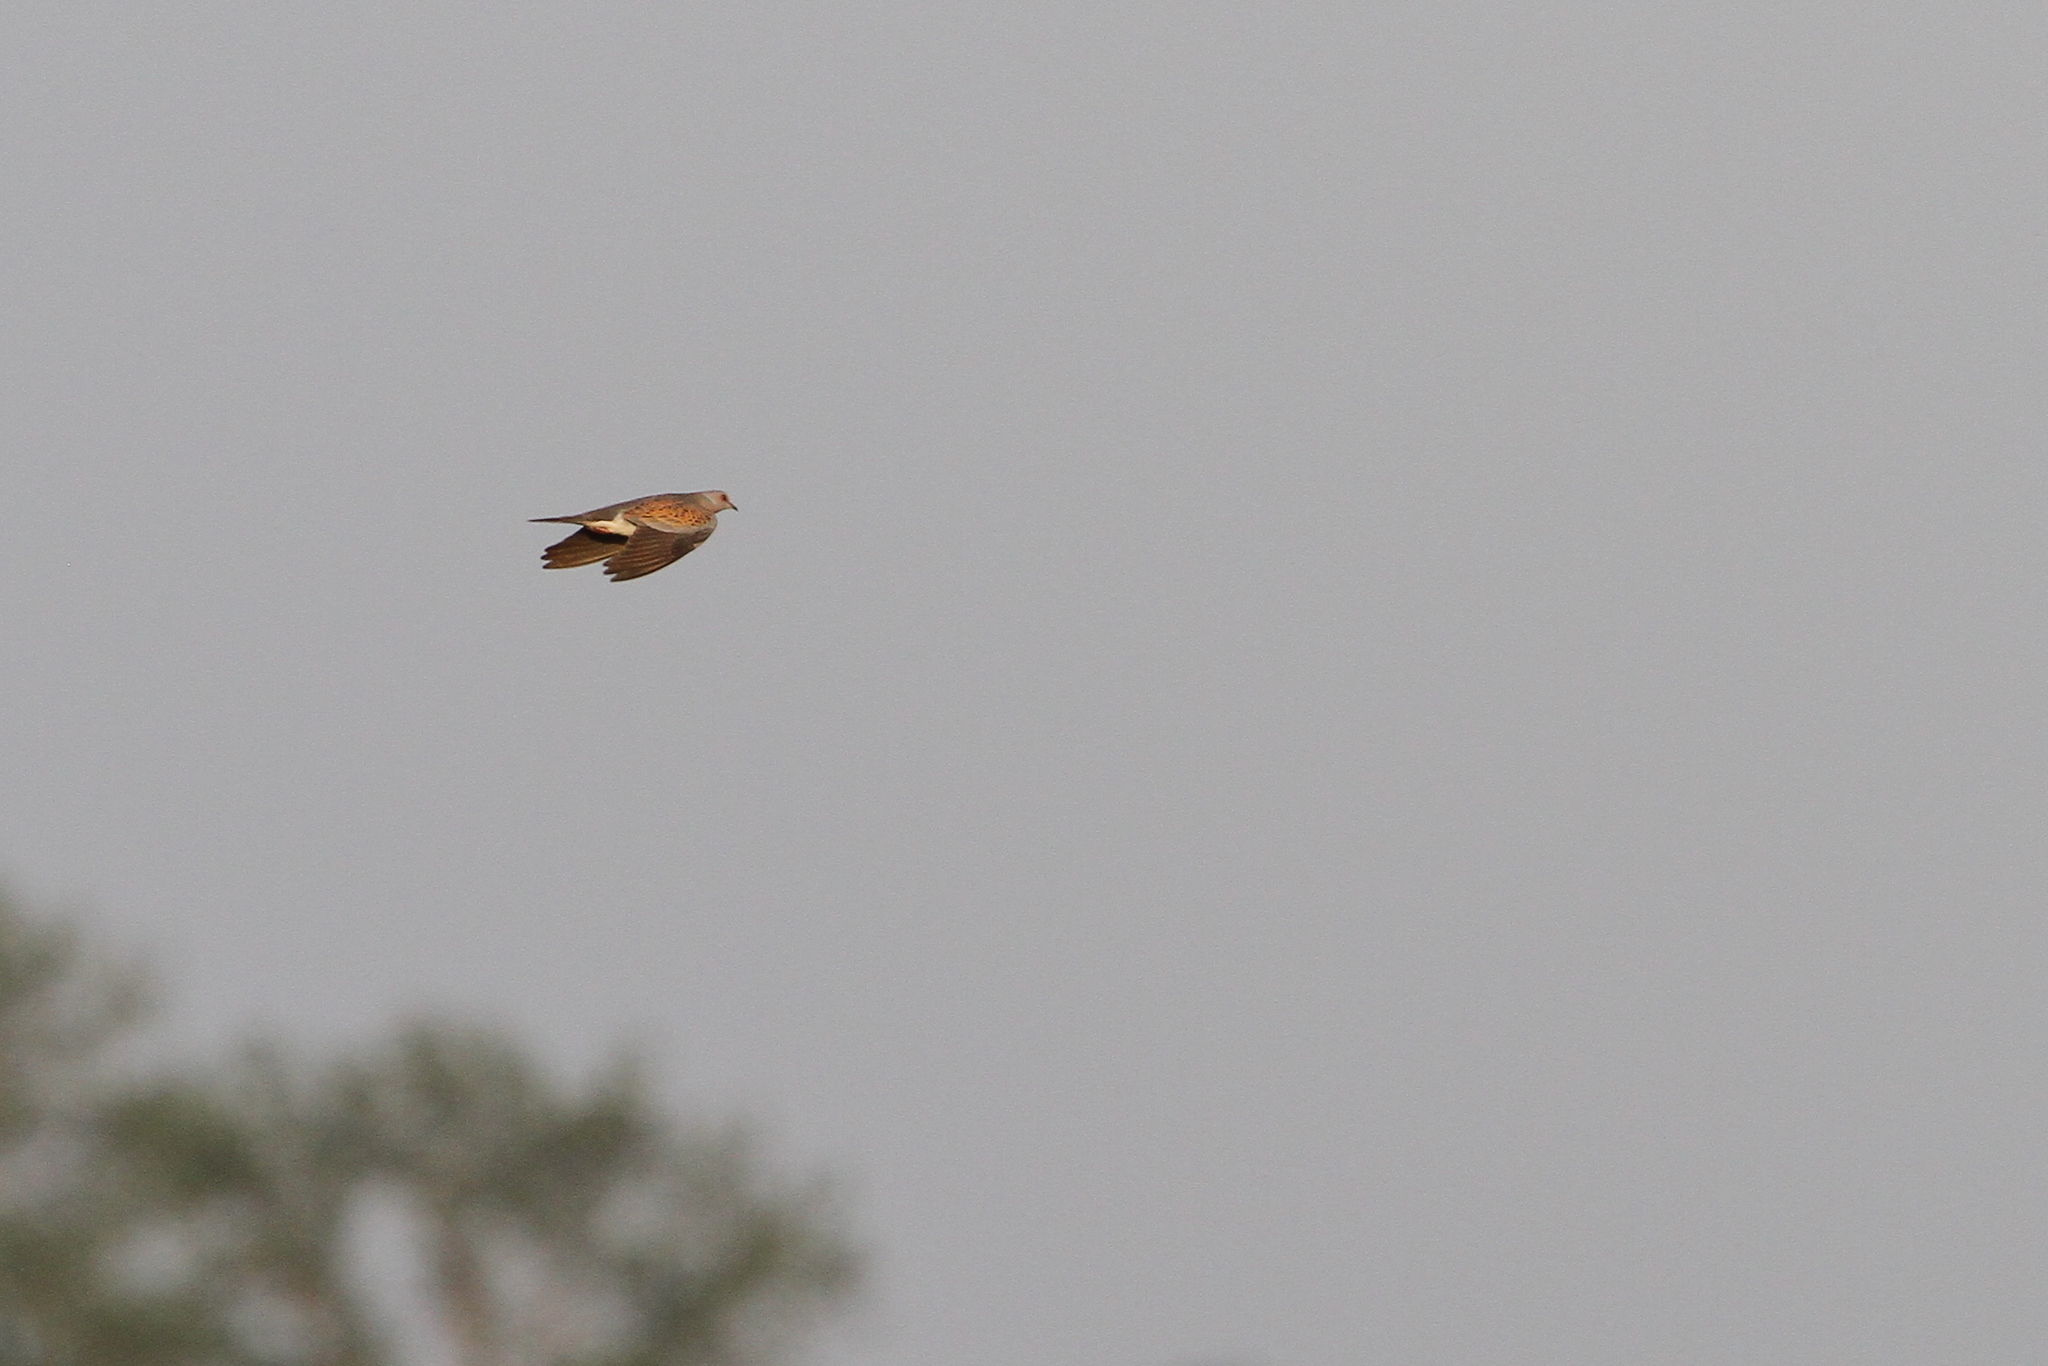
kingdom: Animalia
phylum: Chordata
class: Aves
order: Columbiformes
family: Columbidae
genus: Streptopelia
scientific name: Streptopelia turtur
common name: European turtle dove
